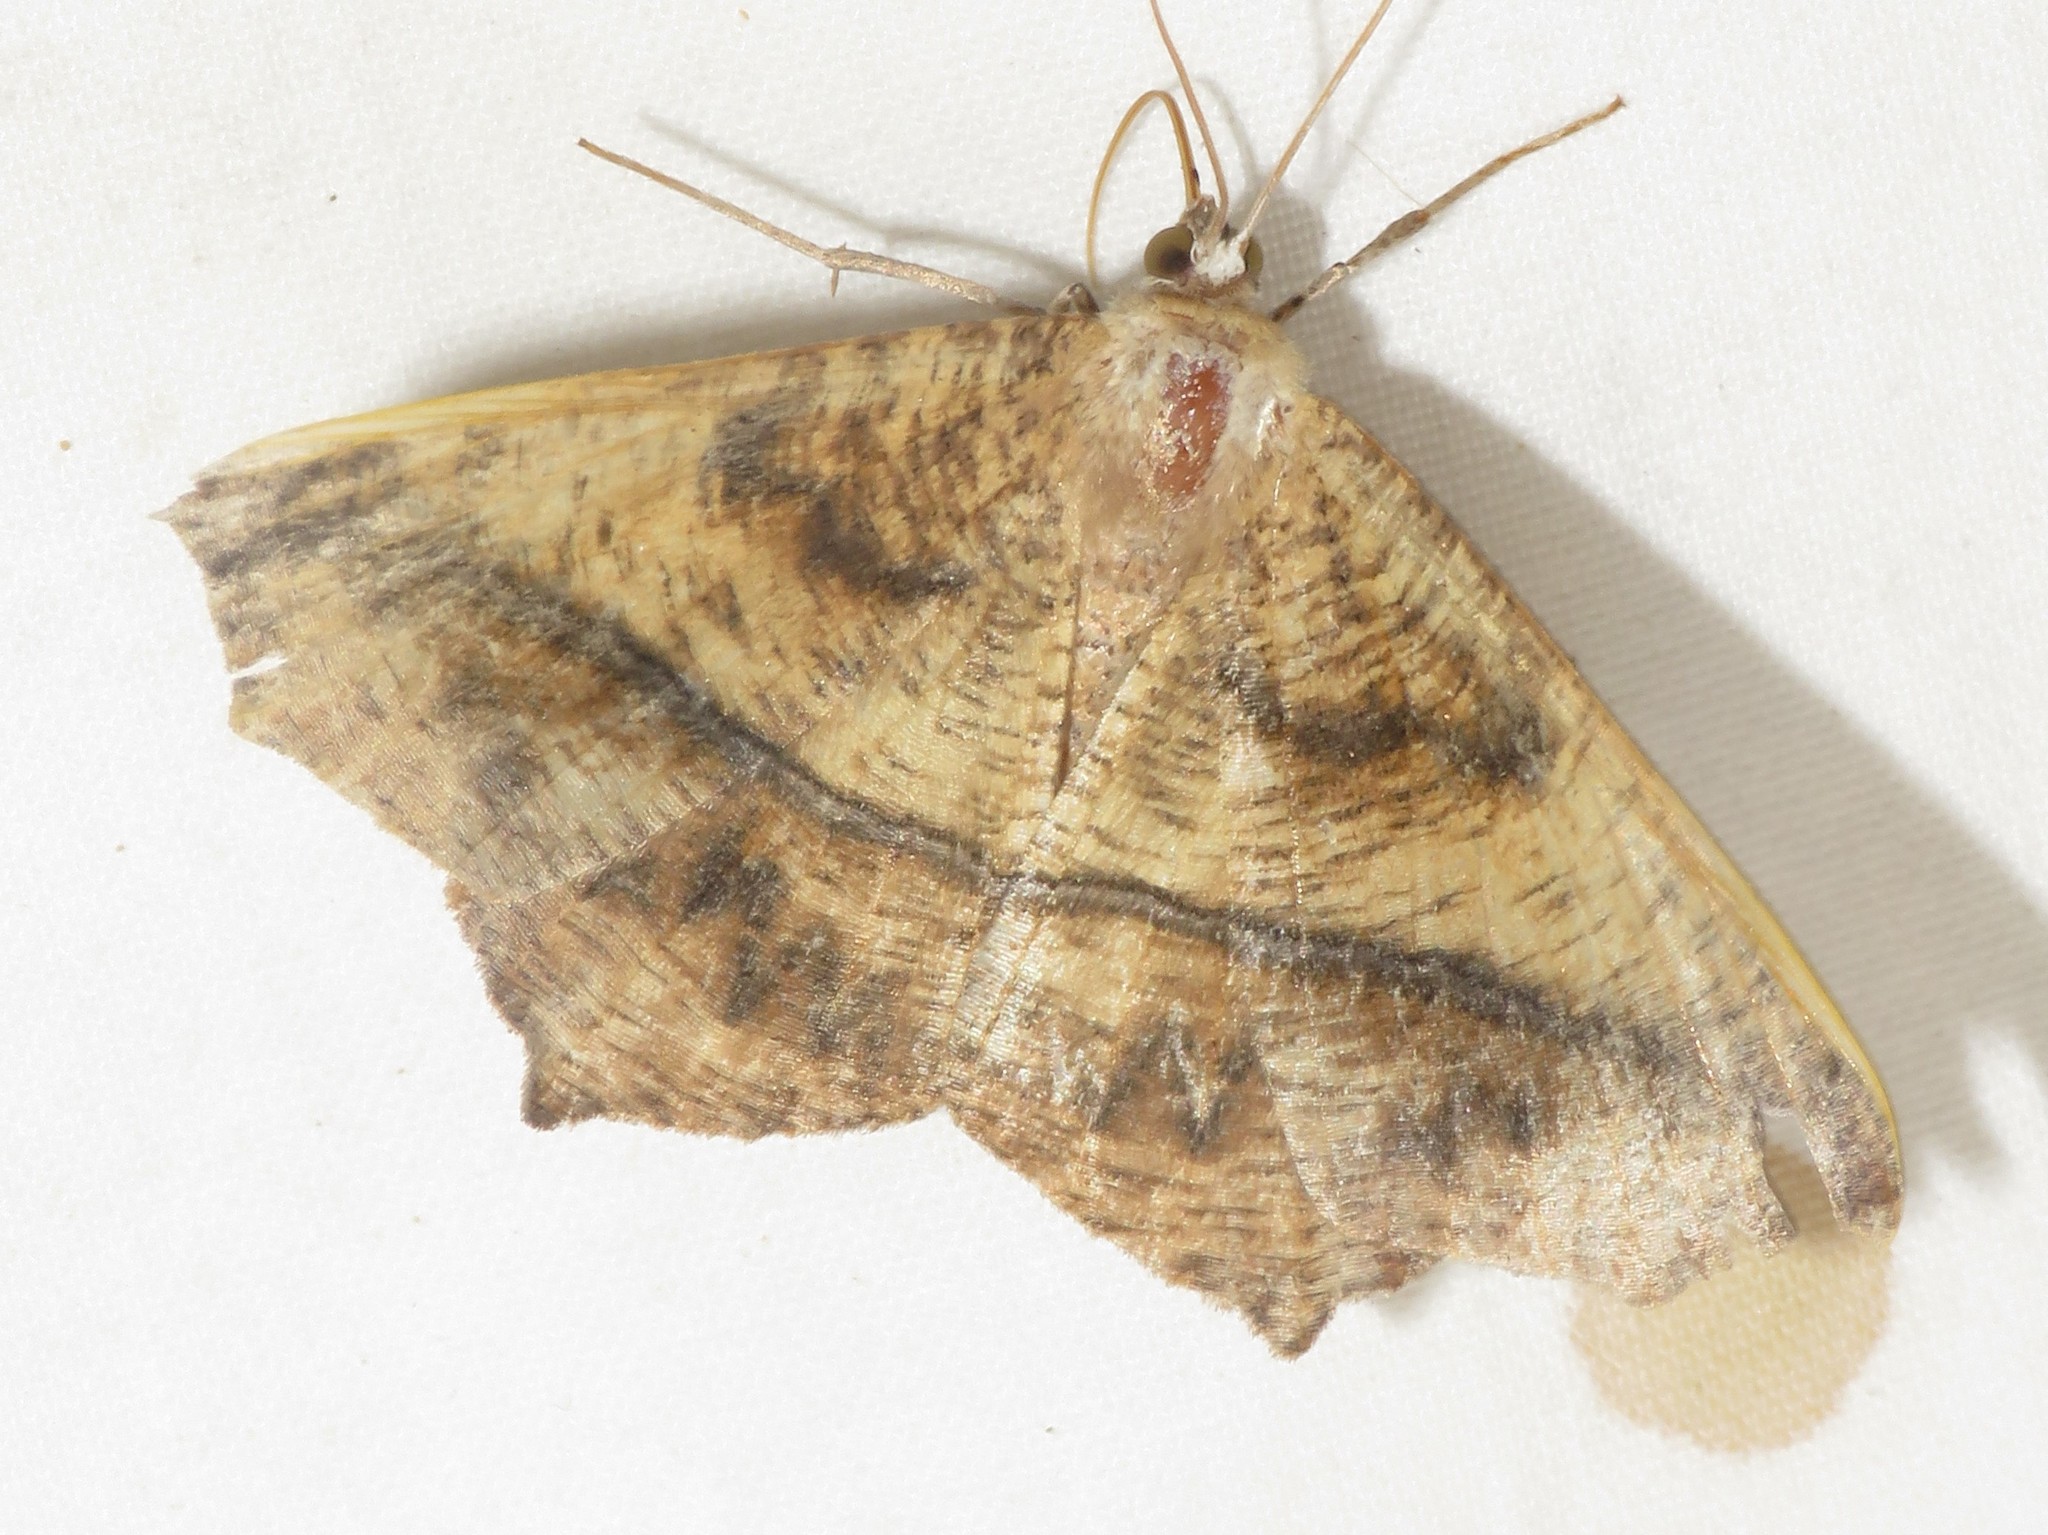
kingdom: Animalia
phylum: Arthropoda
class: Insecta
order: Lepidoptera
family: Geometridae
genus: Prochoerodes
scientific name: Prochoerodes lineola
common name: Large maple spanworm
